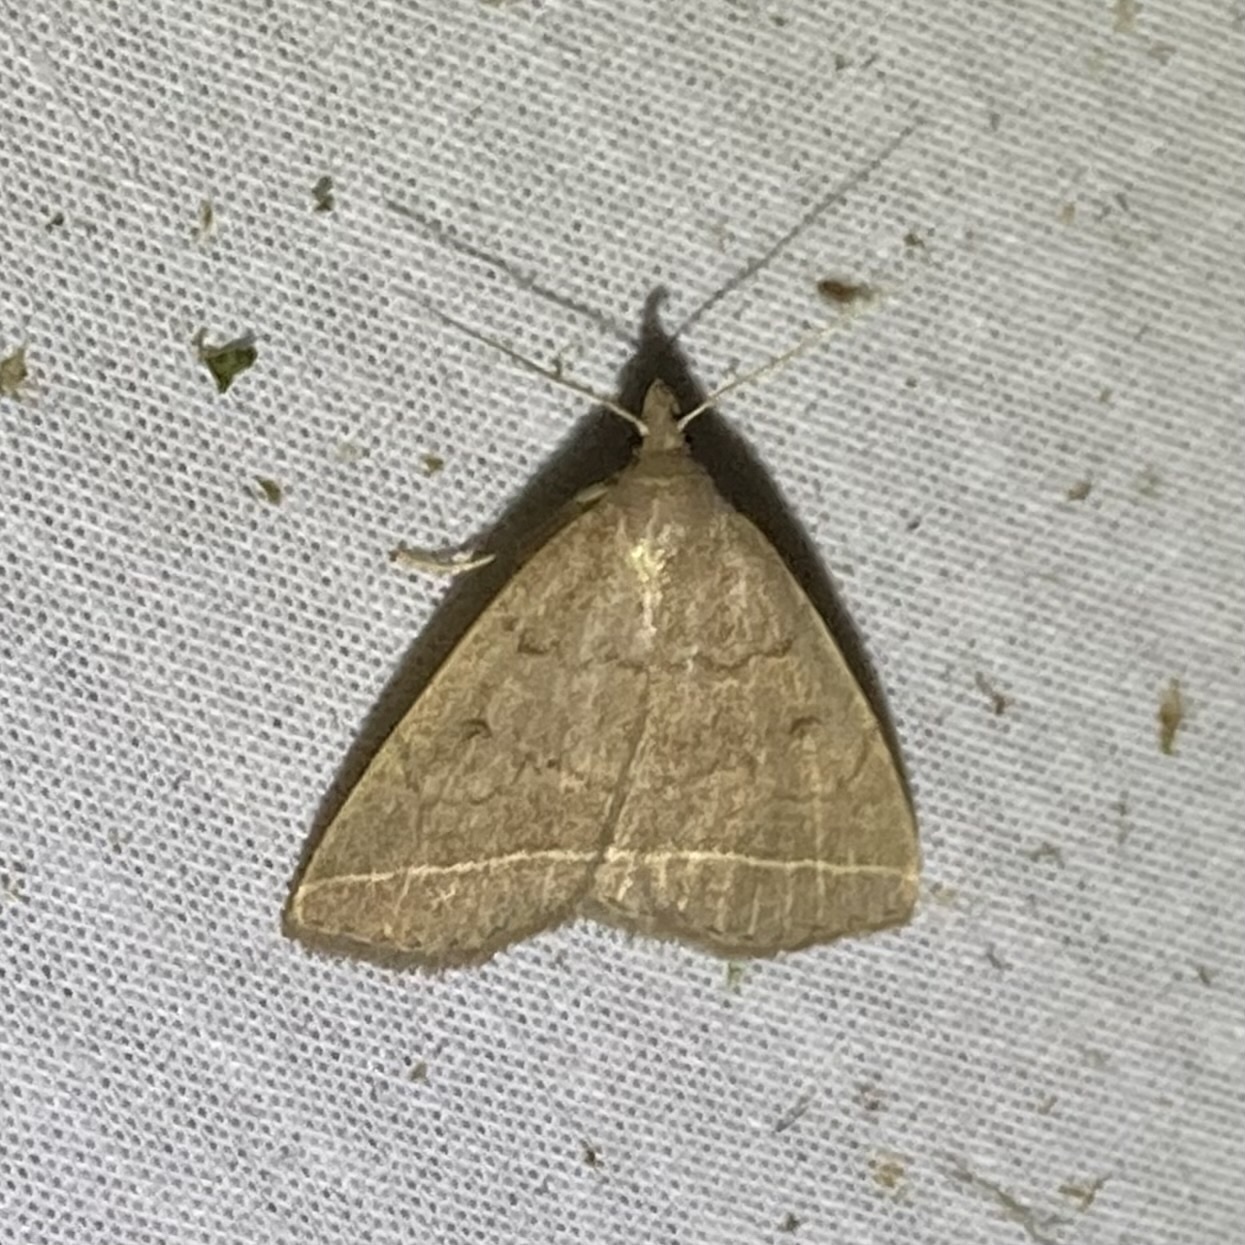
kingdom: Animalia
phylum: Arthropoda
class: Insecta
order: Lepidoptera
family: Erebidae
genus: Zanclognatha
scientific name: Zanclognatha marcidilinea
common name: Yellowish fan-foot
